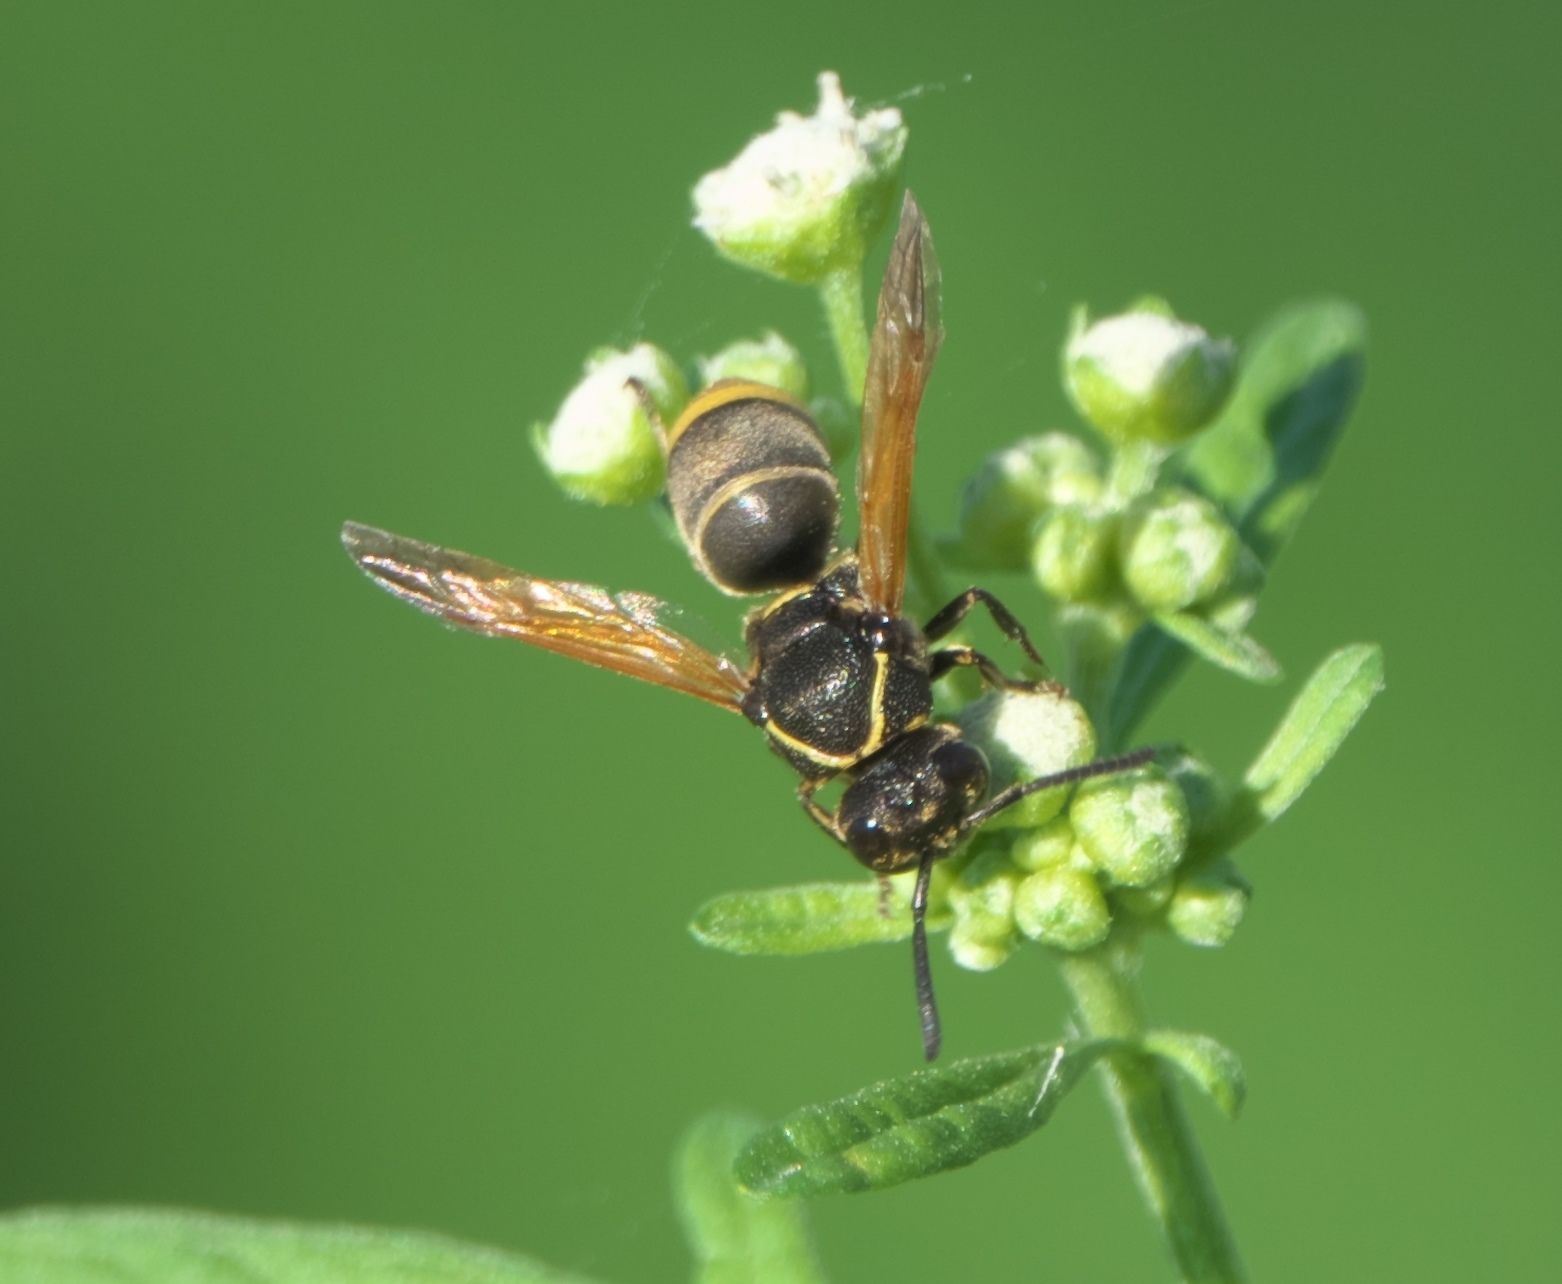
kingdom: Animalia
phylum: Arthropoda
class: Insecta
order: Hymenoptera
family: Eumenidae
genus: Pachodynerus
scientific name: Pachodynerus guadulpensis
